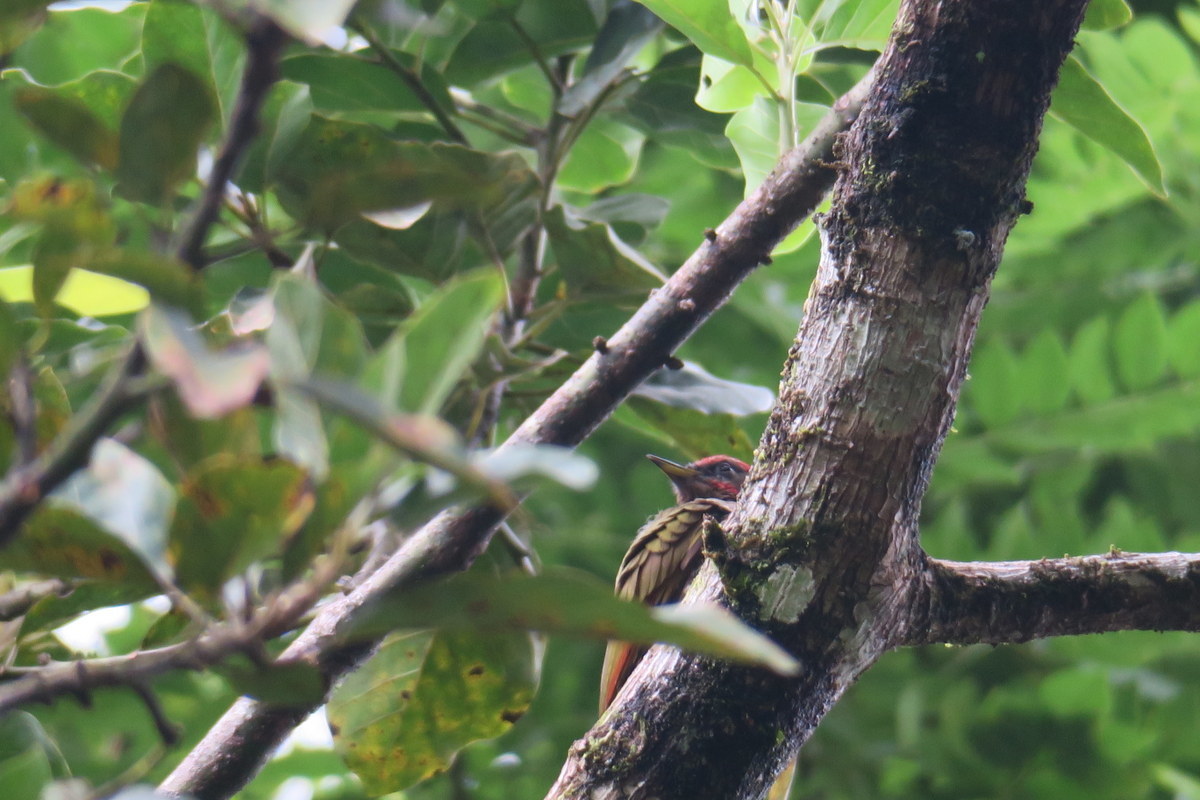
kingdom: Animalia
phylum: Chordata
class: Aves
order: Piciformes
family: Picidae
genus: Picus
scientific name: Picus chlorolophus
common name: Lesser yellownape
